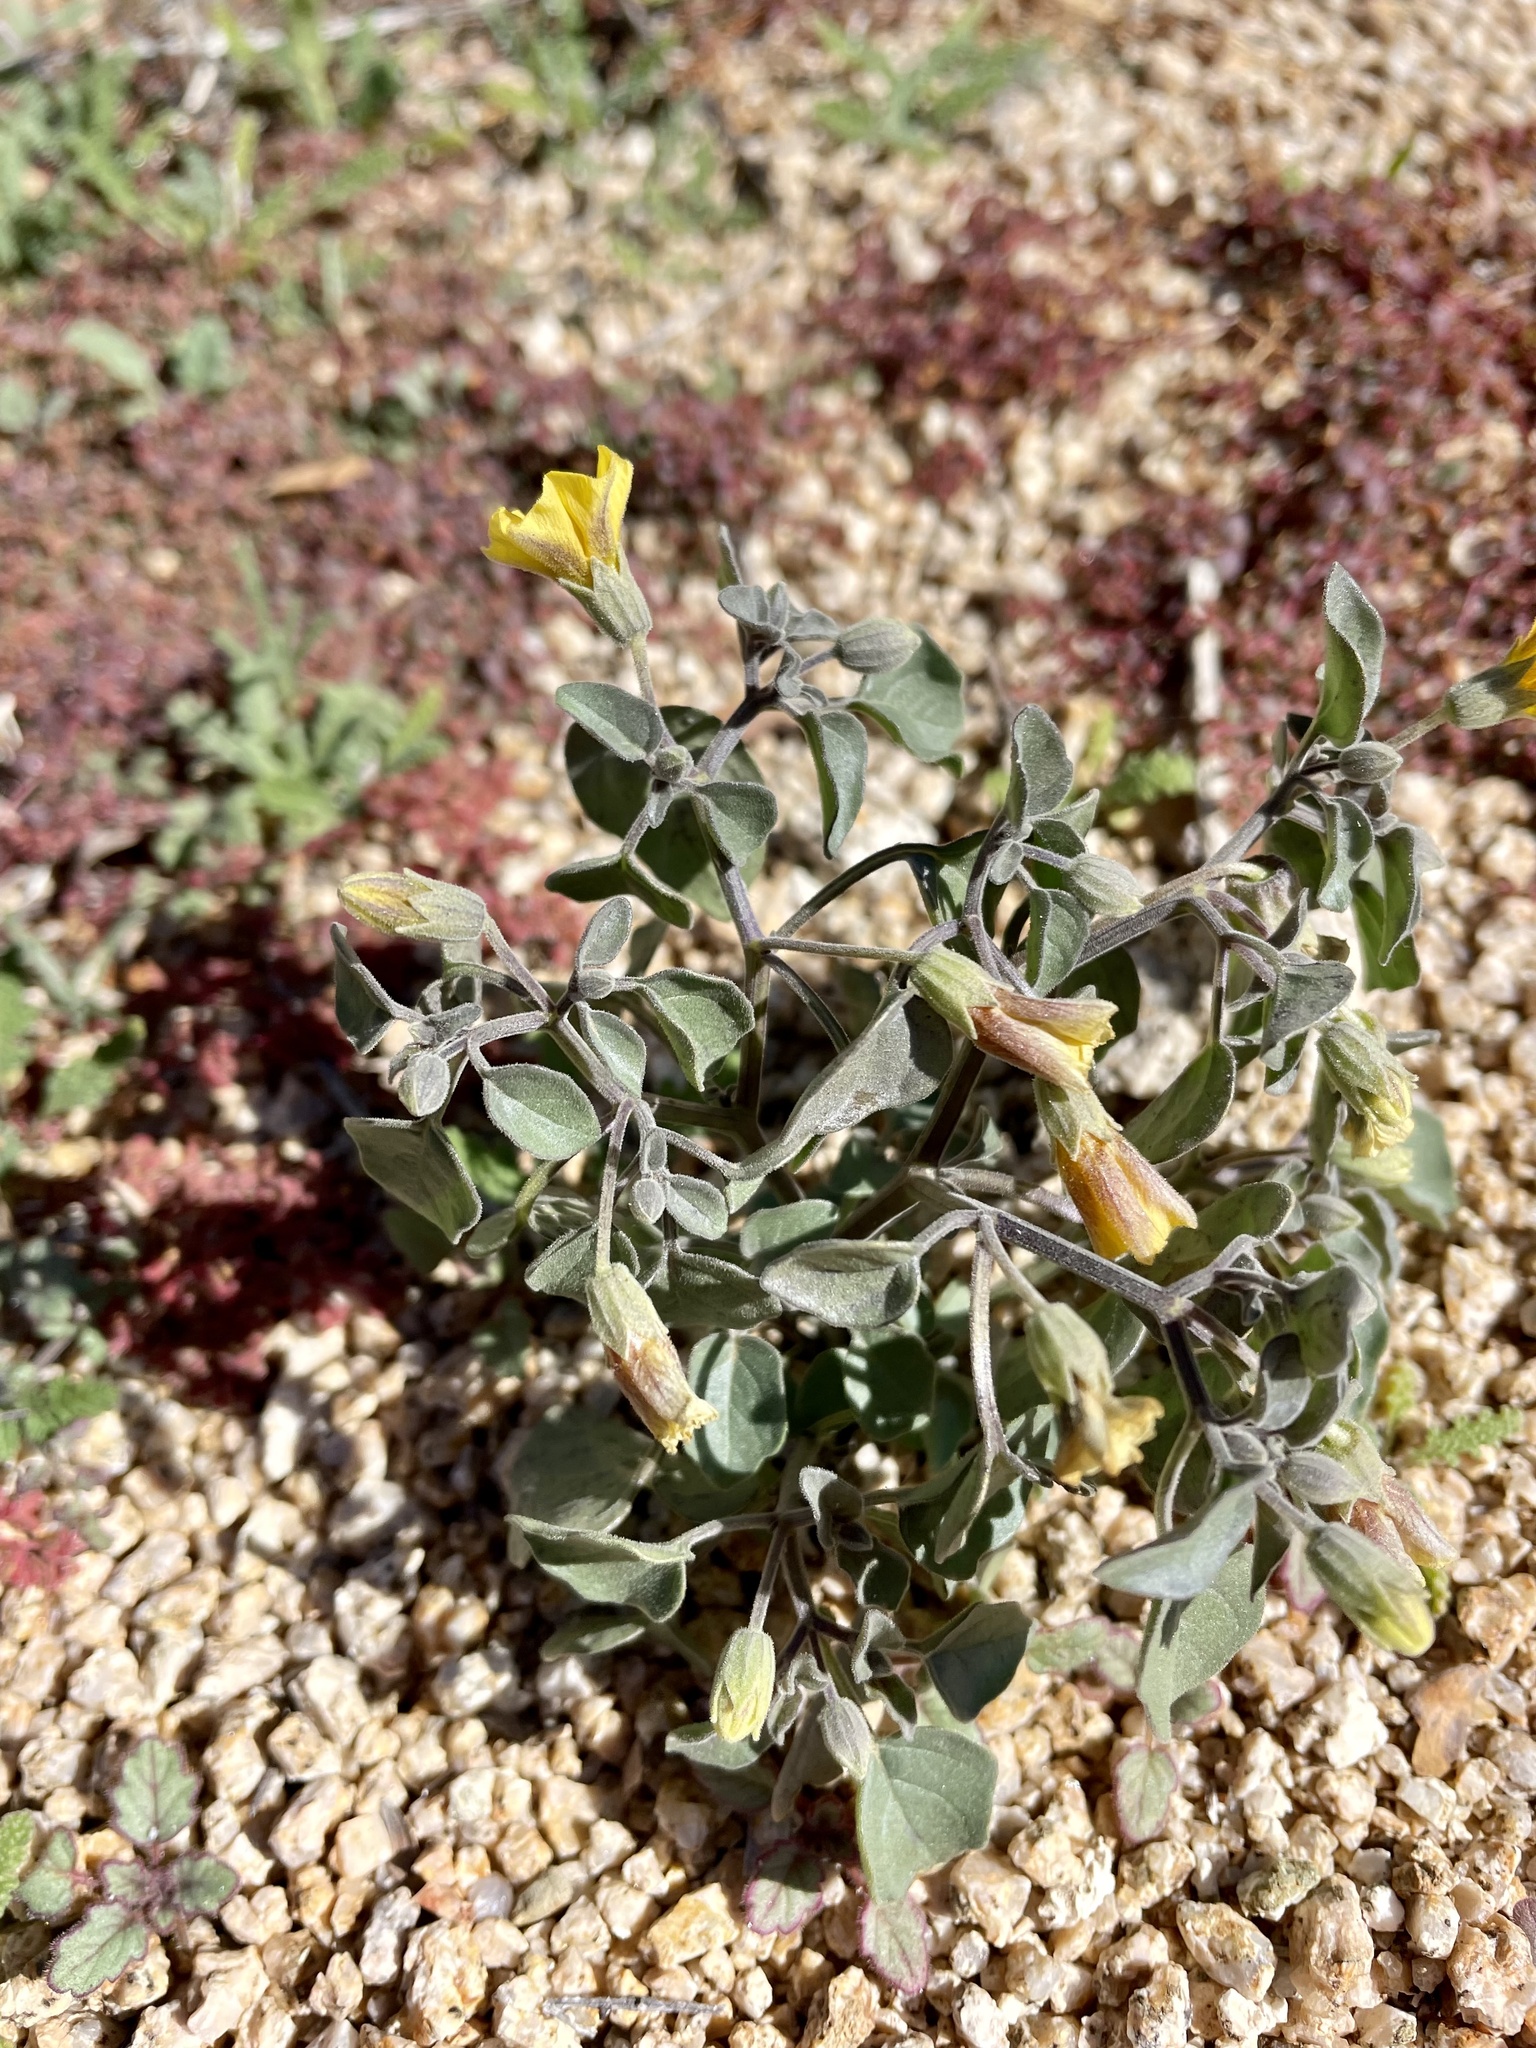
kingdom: Plantae
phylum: Tracheophyta
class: Magnoliopsida
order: Solanales
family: Solanaceae
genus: Physalis
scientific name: Physalis crassifolia
